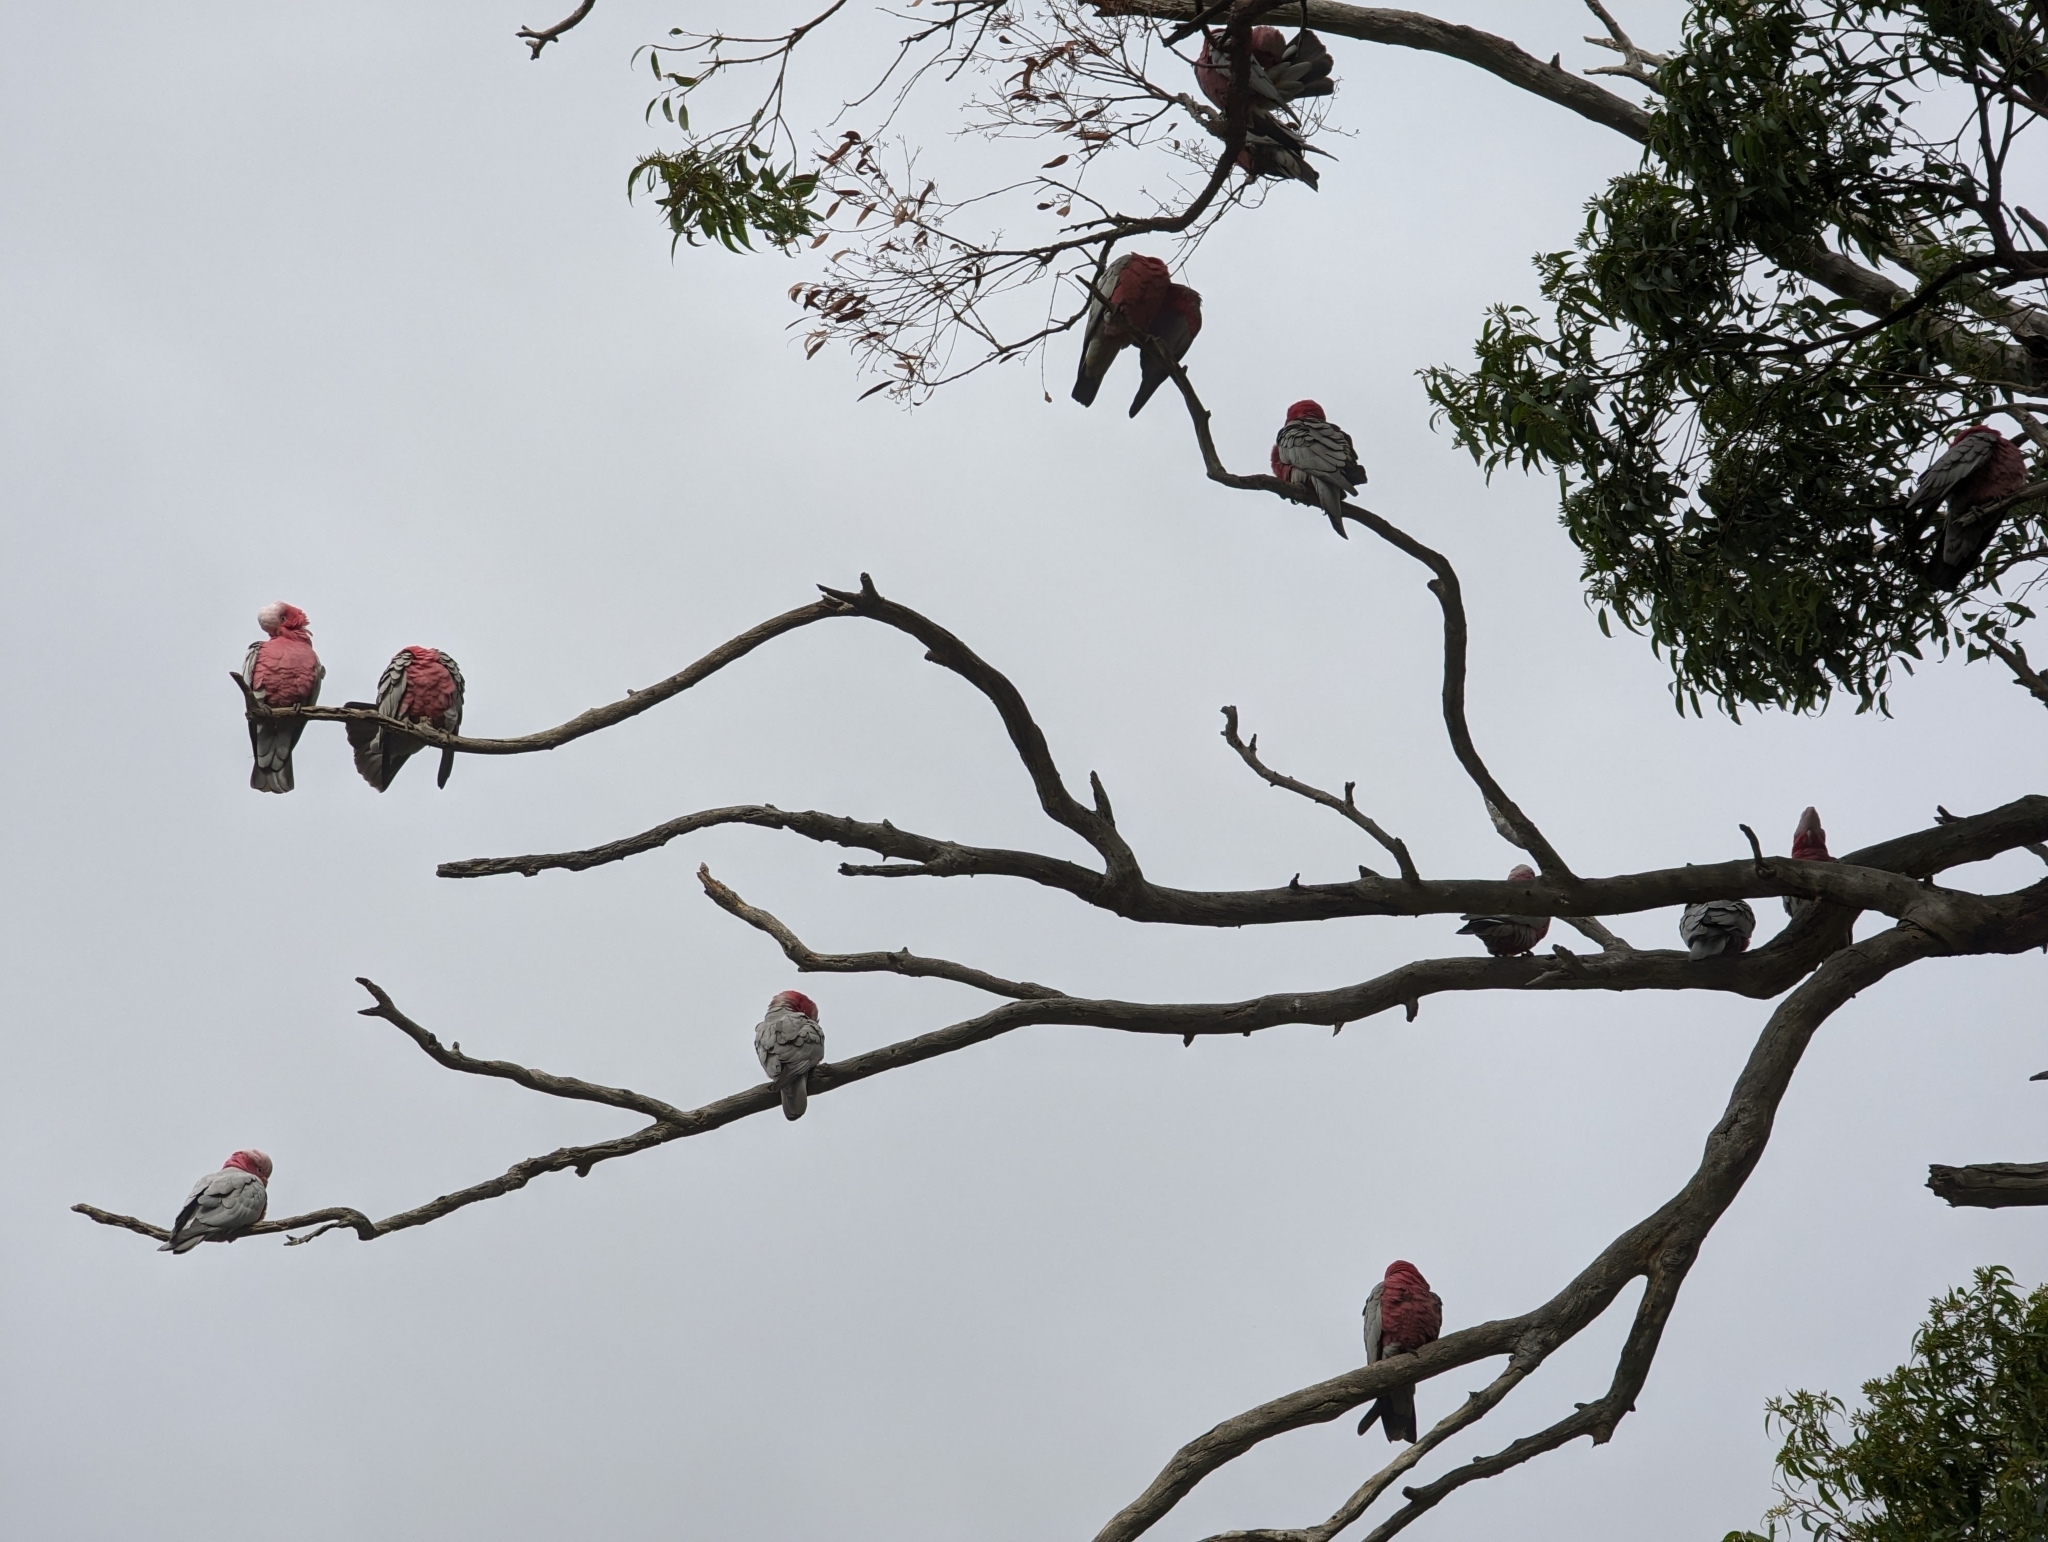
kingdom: Animalia
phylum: Chordata
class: Aves
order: Psittaciformes
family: Psittacidae
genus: Eolophus
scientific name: Eolophus roseicapilla
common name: Galah
